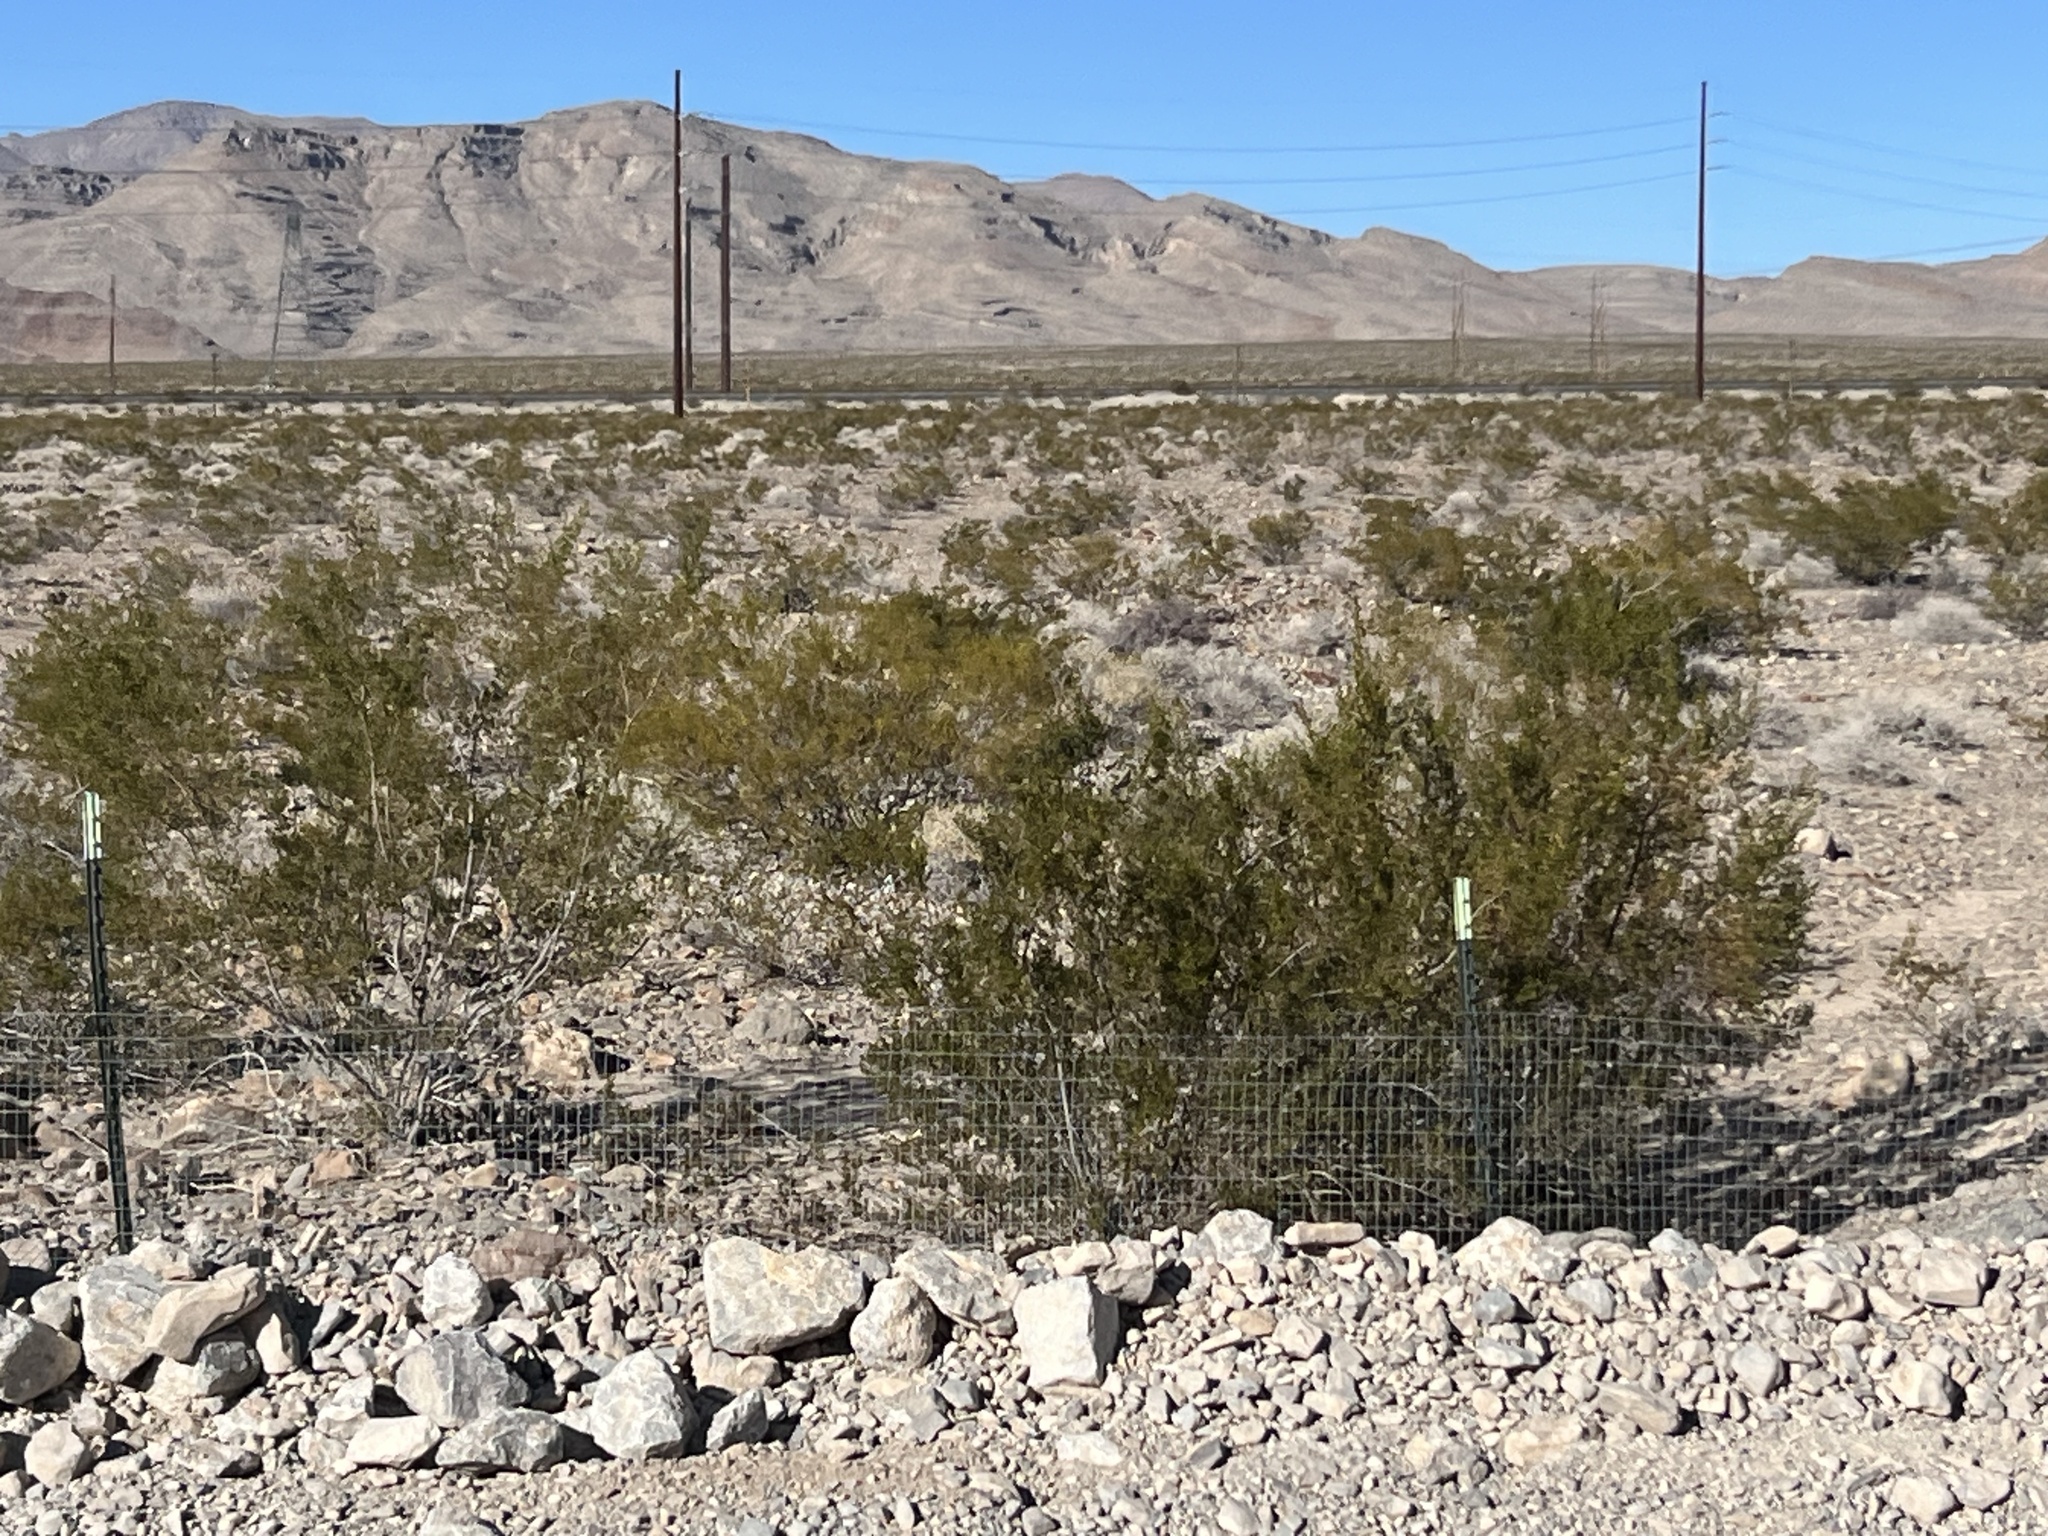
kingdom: Plantae
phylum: Tracheophyta
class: Magnoliopsida
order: Zygophyllales
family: Zygophyllaceae
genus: Larrea
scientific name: Larrea tridentata
